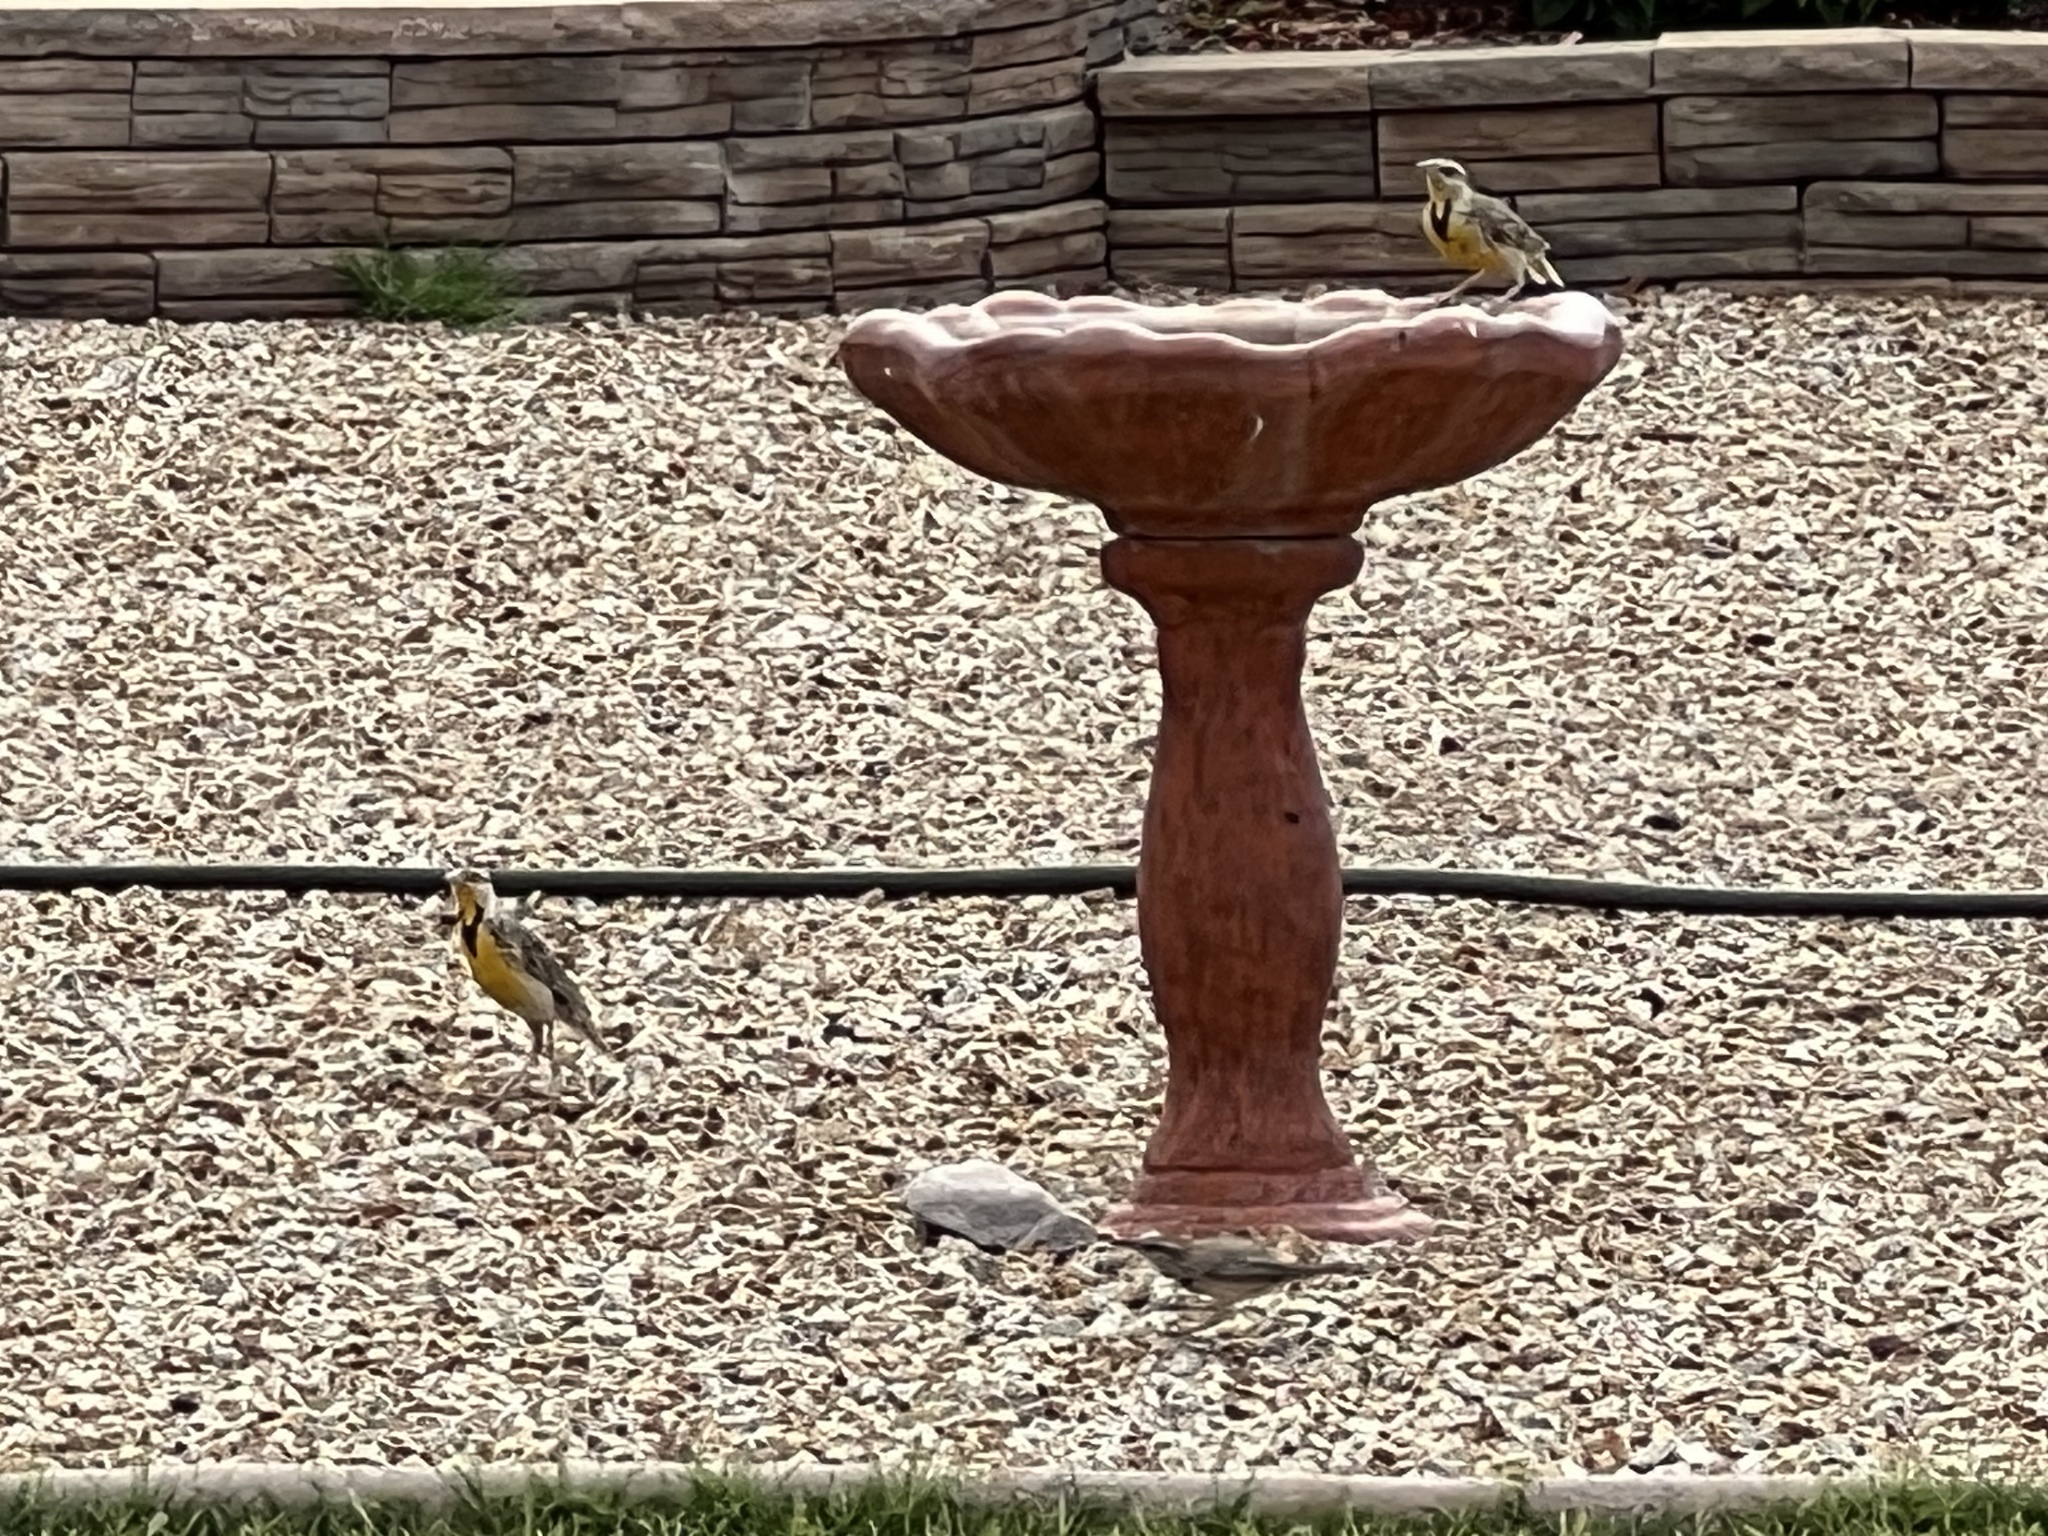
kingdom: Animalia
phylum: Chordata
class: Aves
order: Passeriformes
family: Icteridae
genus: Sturnella
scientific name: Sturnella neglecta
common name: Western meadowlark
